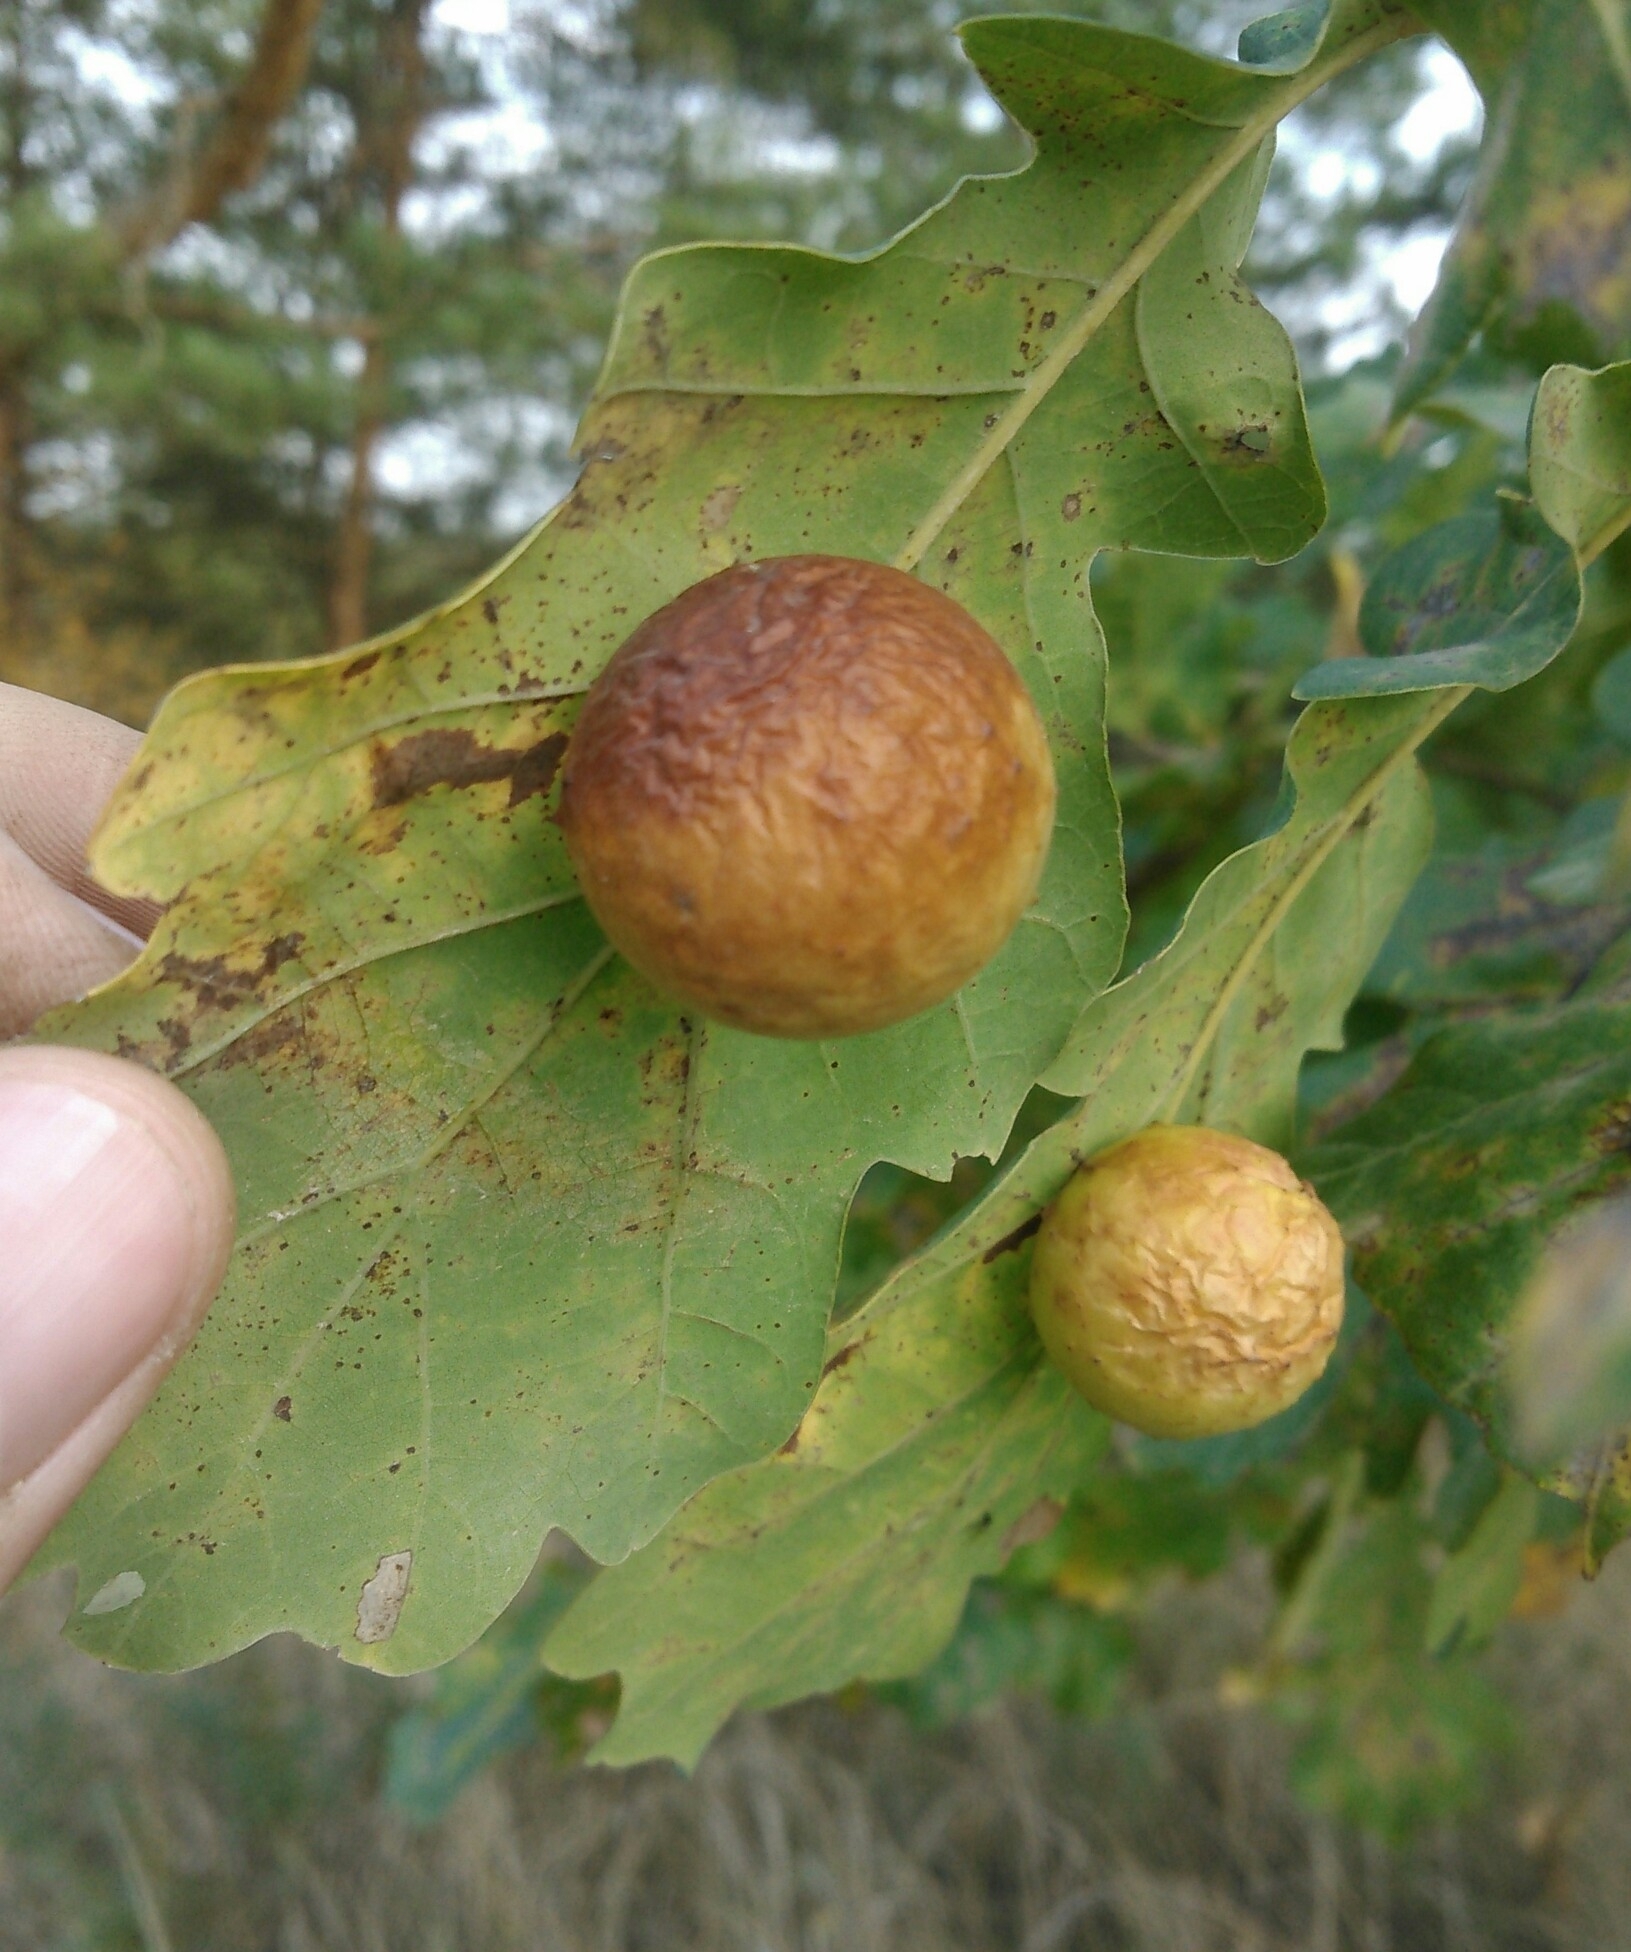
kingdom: Animalia
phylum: Arthropoda
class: Insecta
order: Hymenoptera
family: Cynipidae
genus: Cynips
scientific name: Cynips quercusfolii
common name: Cherry gall
